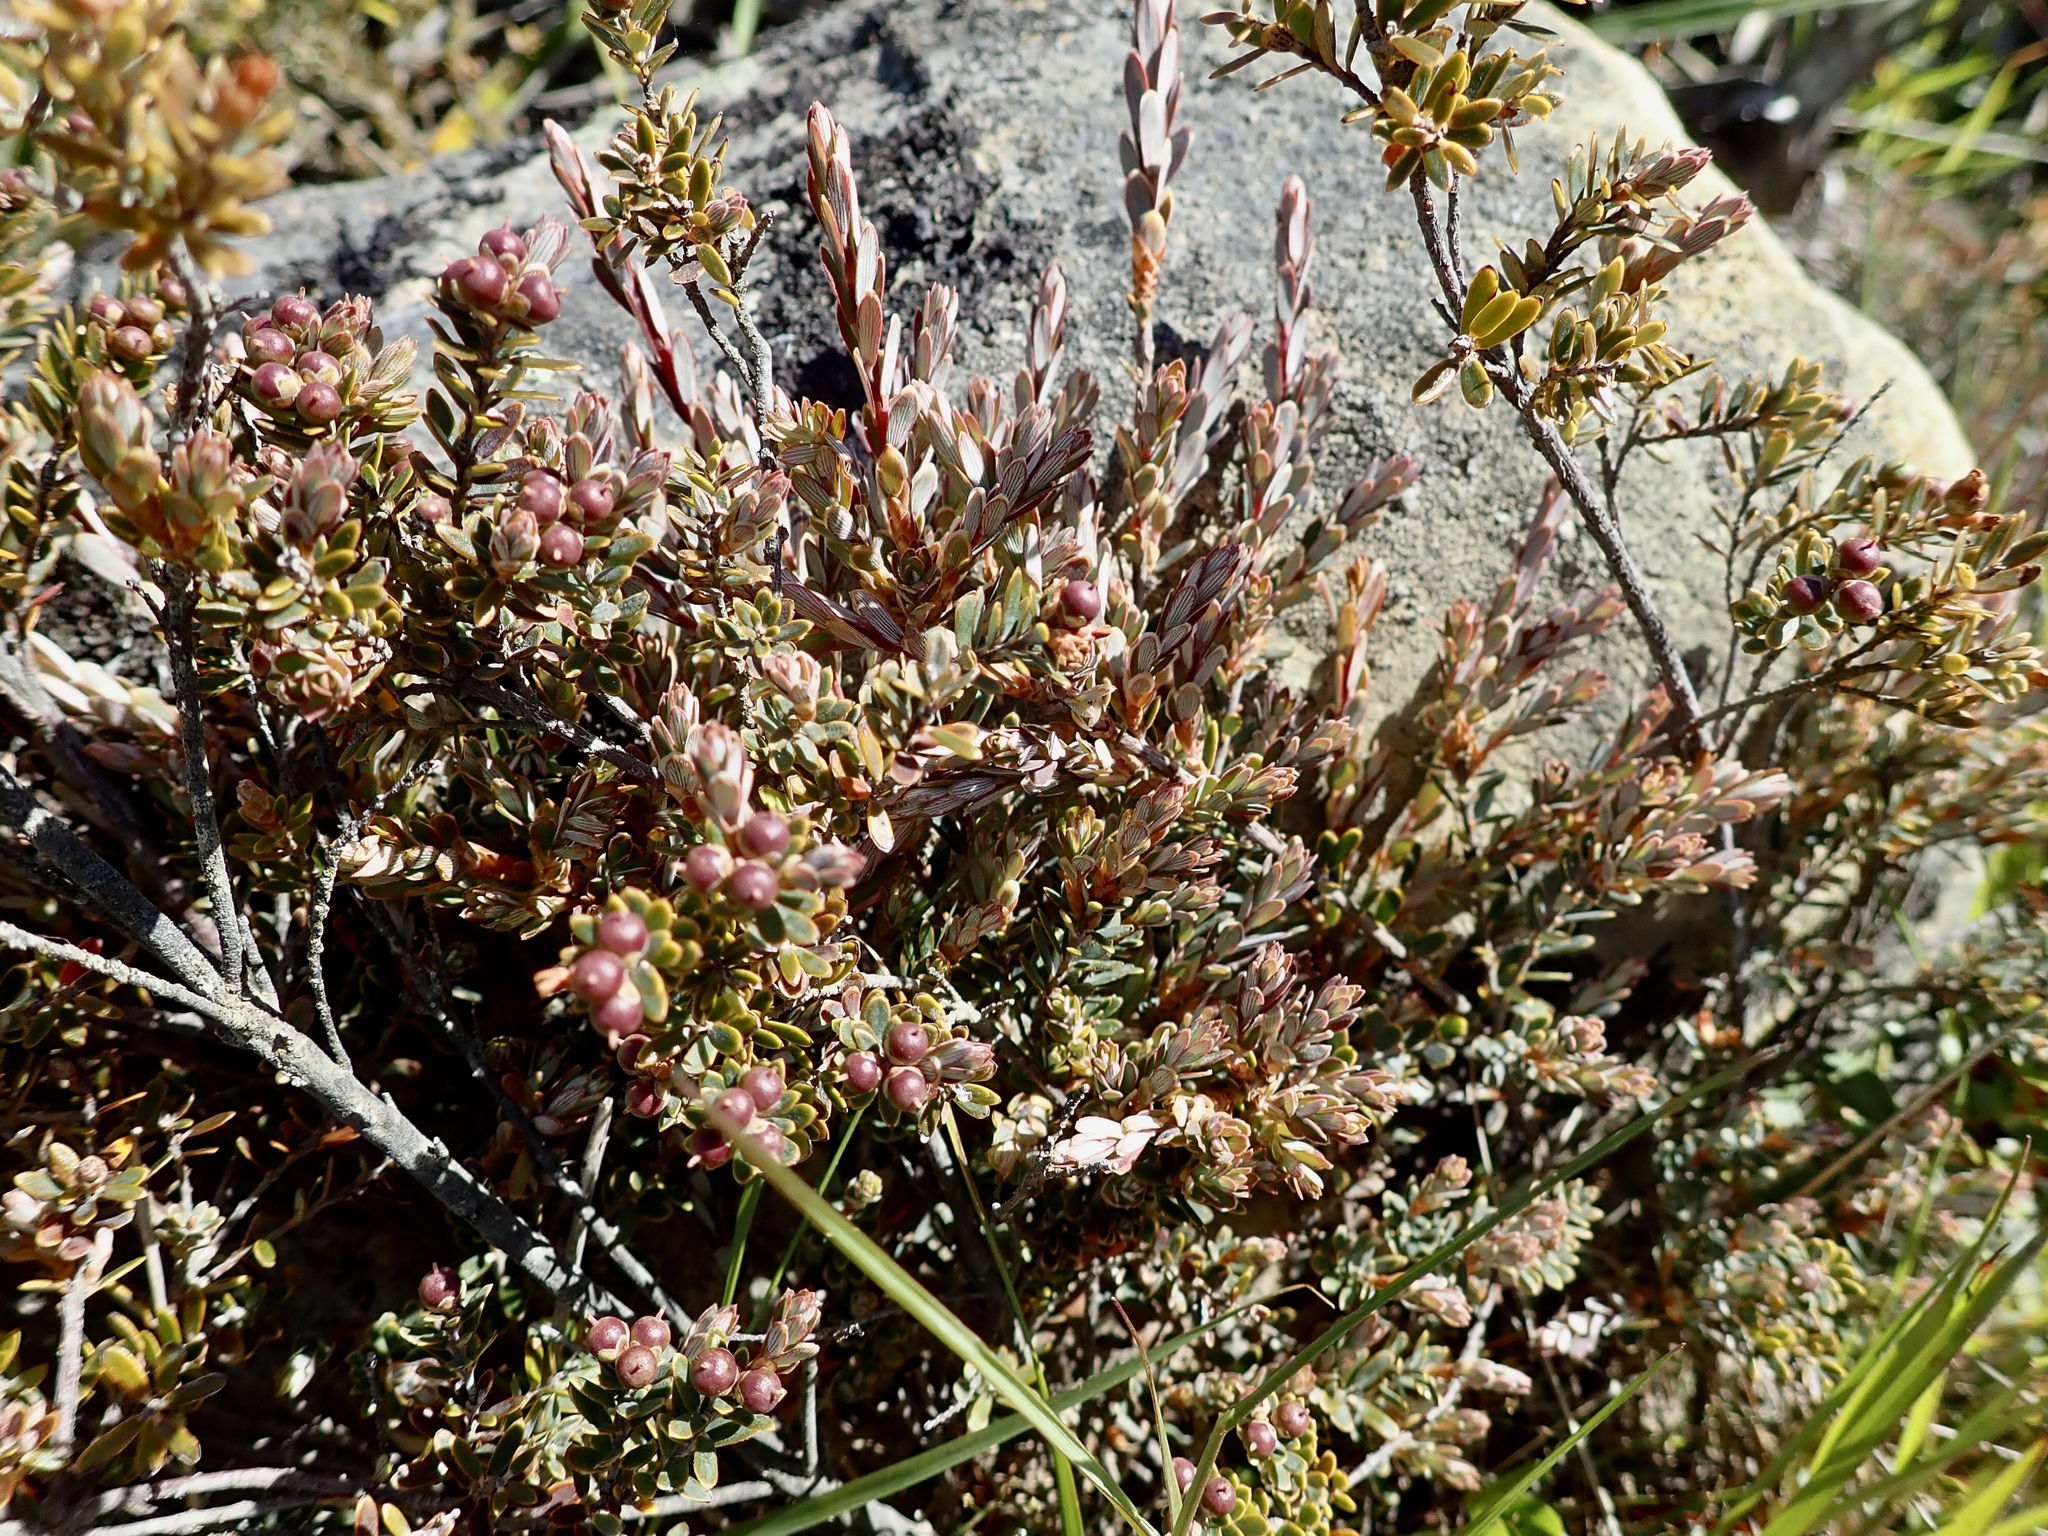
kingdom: Plantae
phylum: Tracheophyta
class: Magnoliopsida
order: Ericales
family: Ericaceae
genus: Acrothamnus
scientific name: Acrothamnus colensoi
